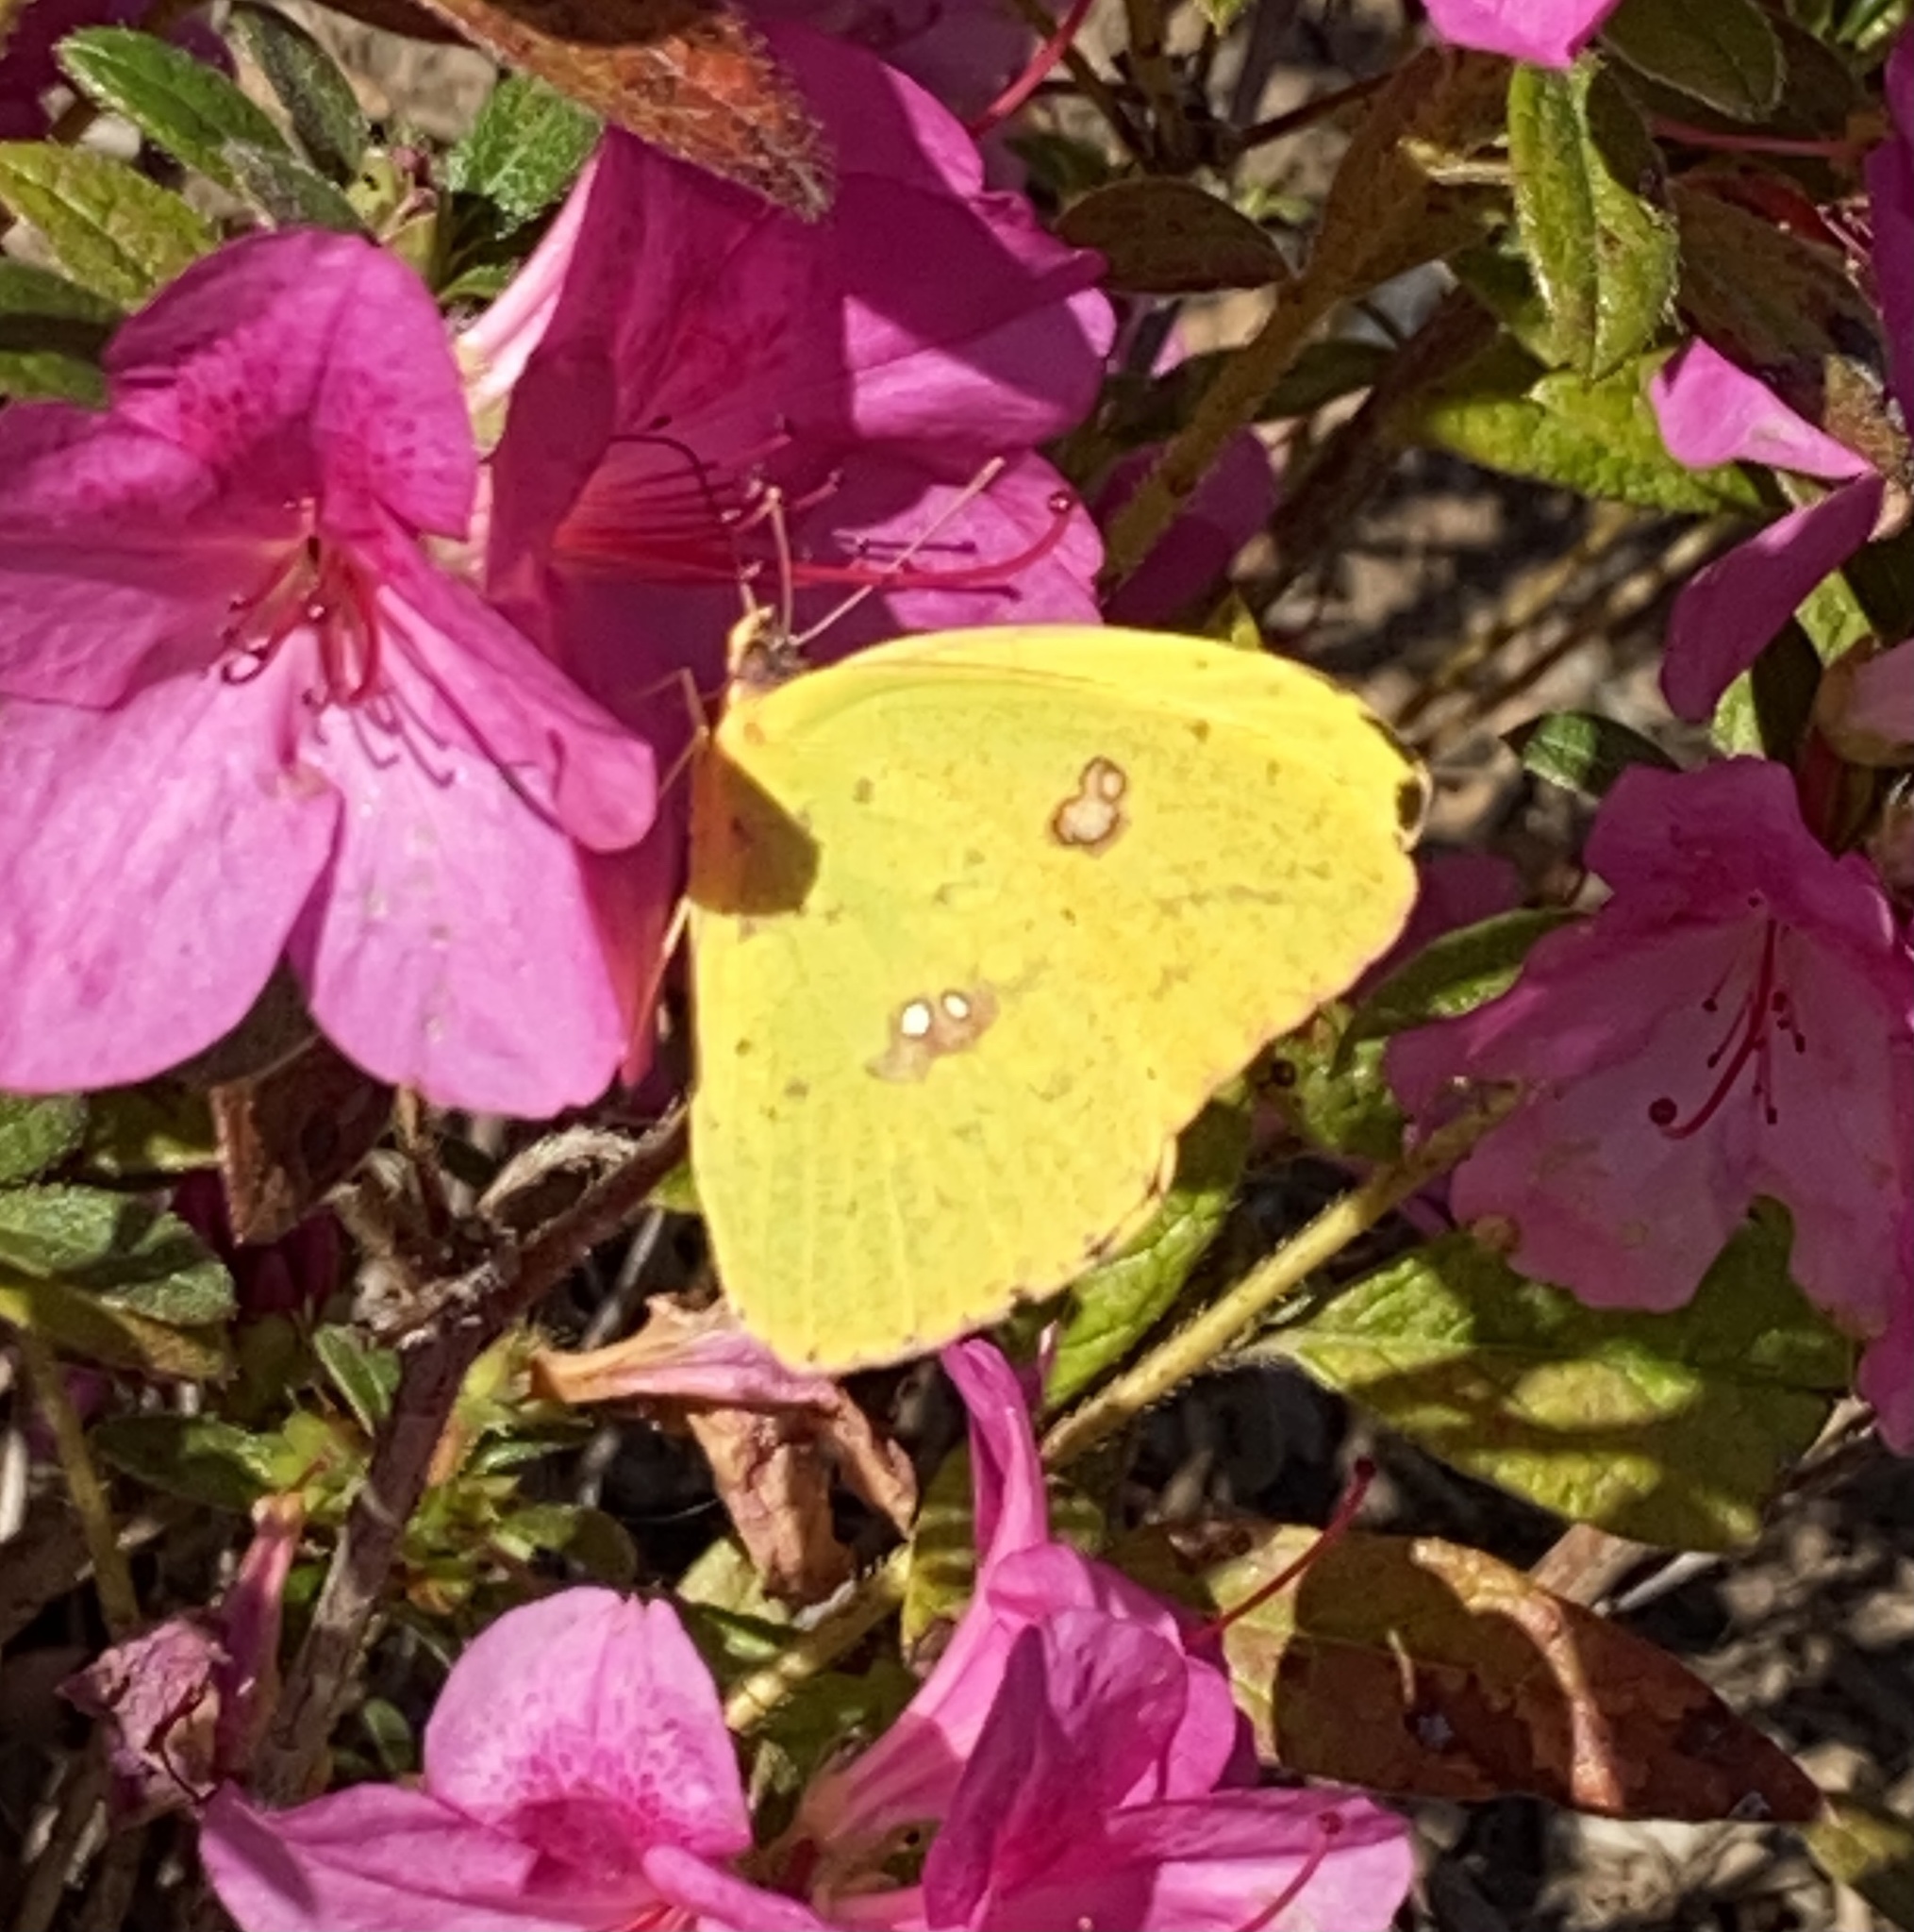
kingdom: Animalia
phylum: Arthropoda
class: Insecta
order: Lepidoptera
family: Pieridae
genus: Phoebis
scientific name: Phoebis sennae
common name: Cloudless sulphur
